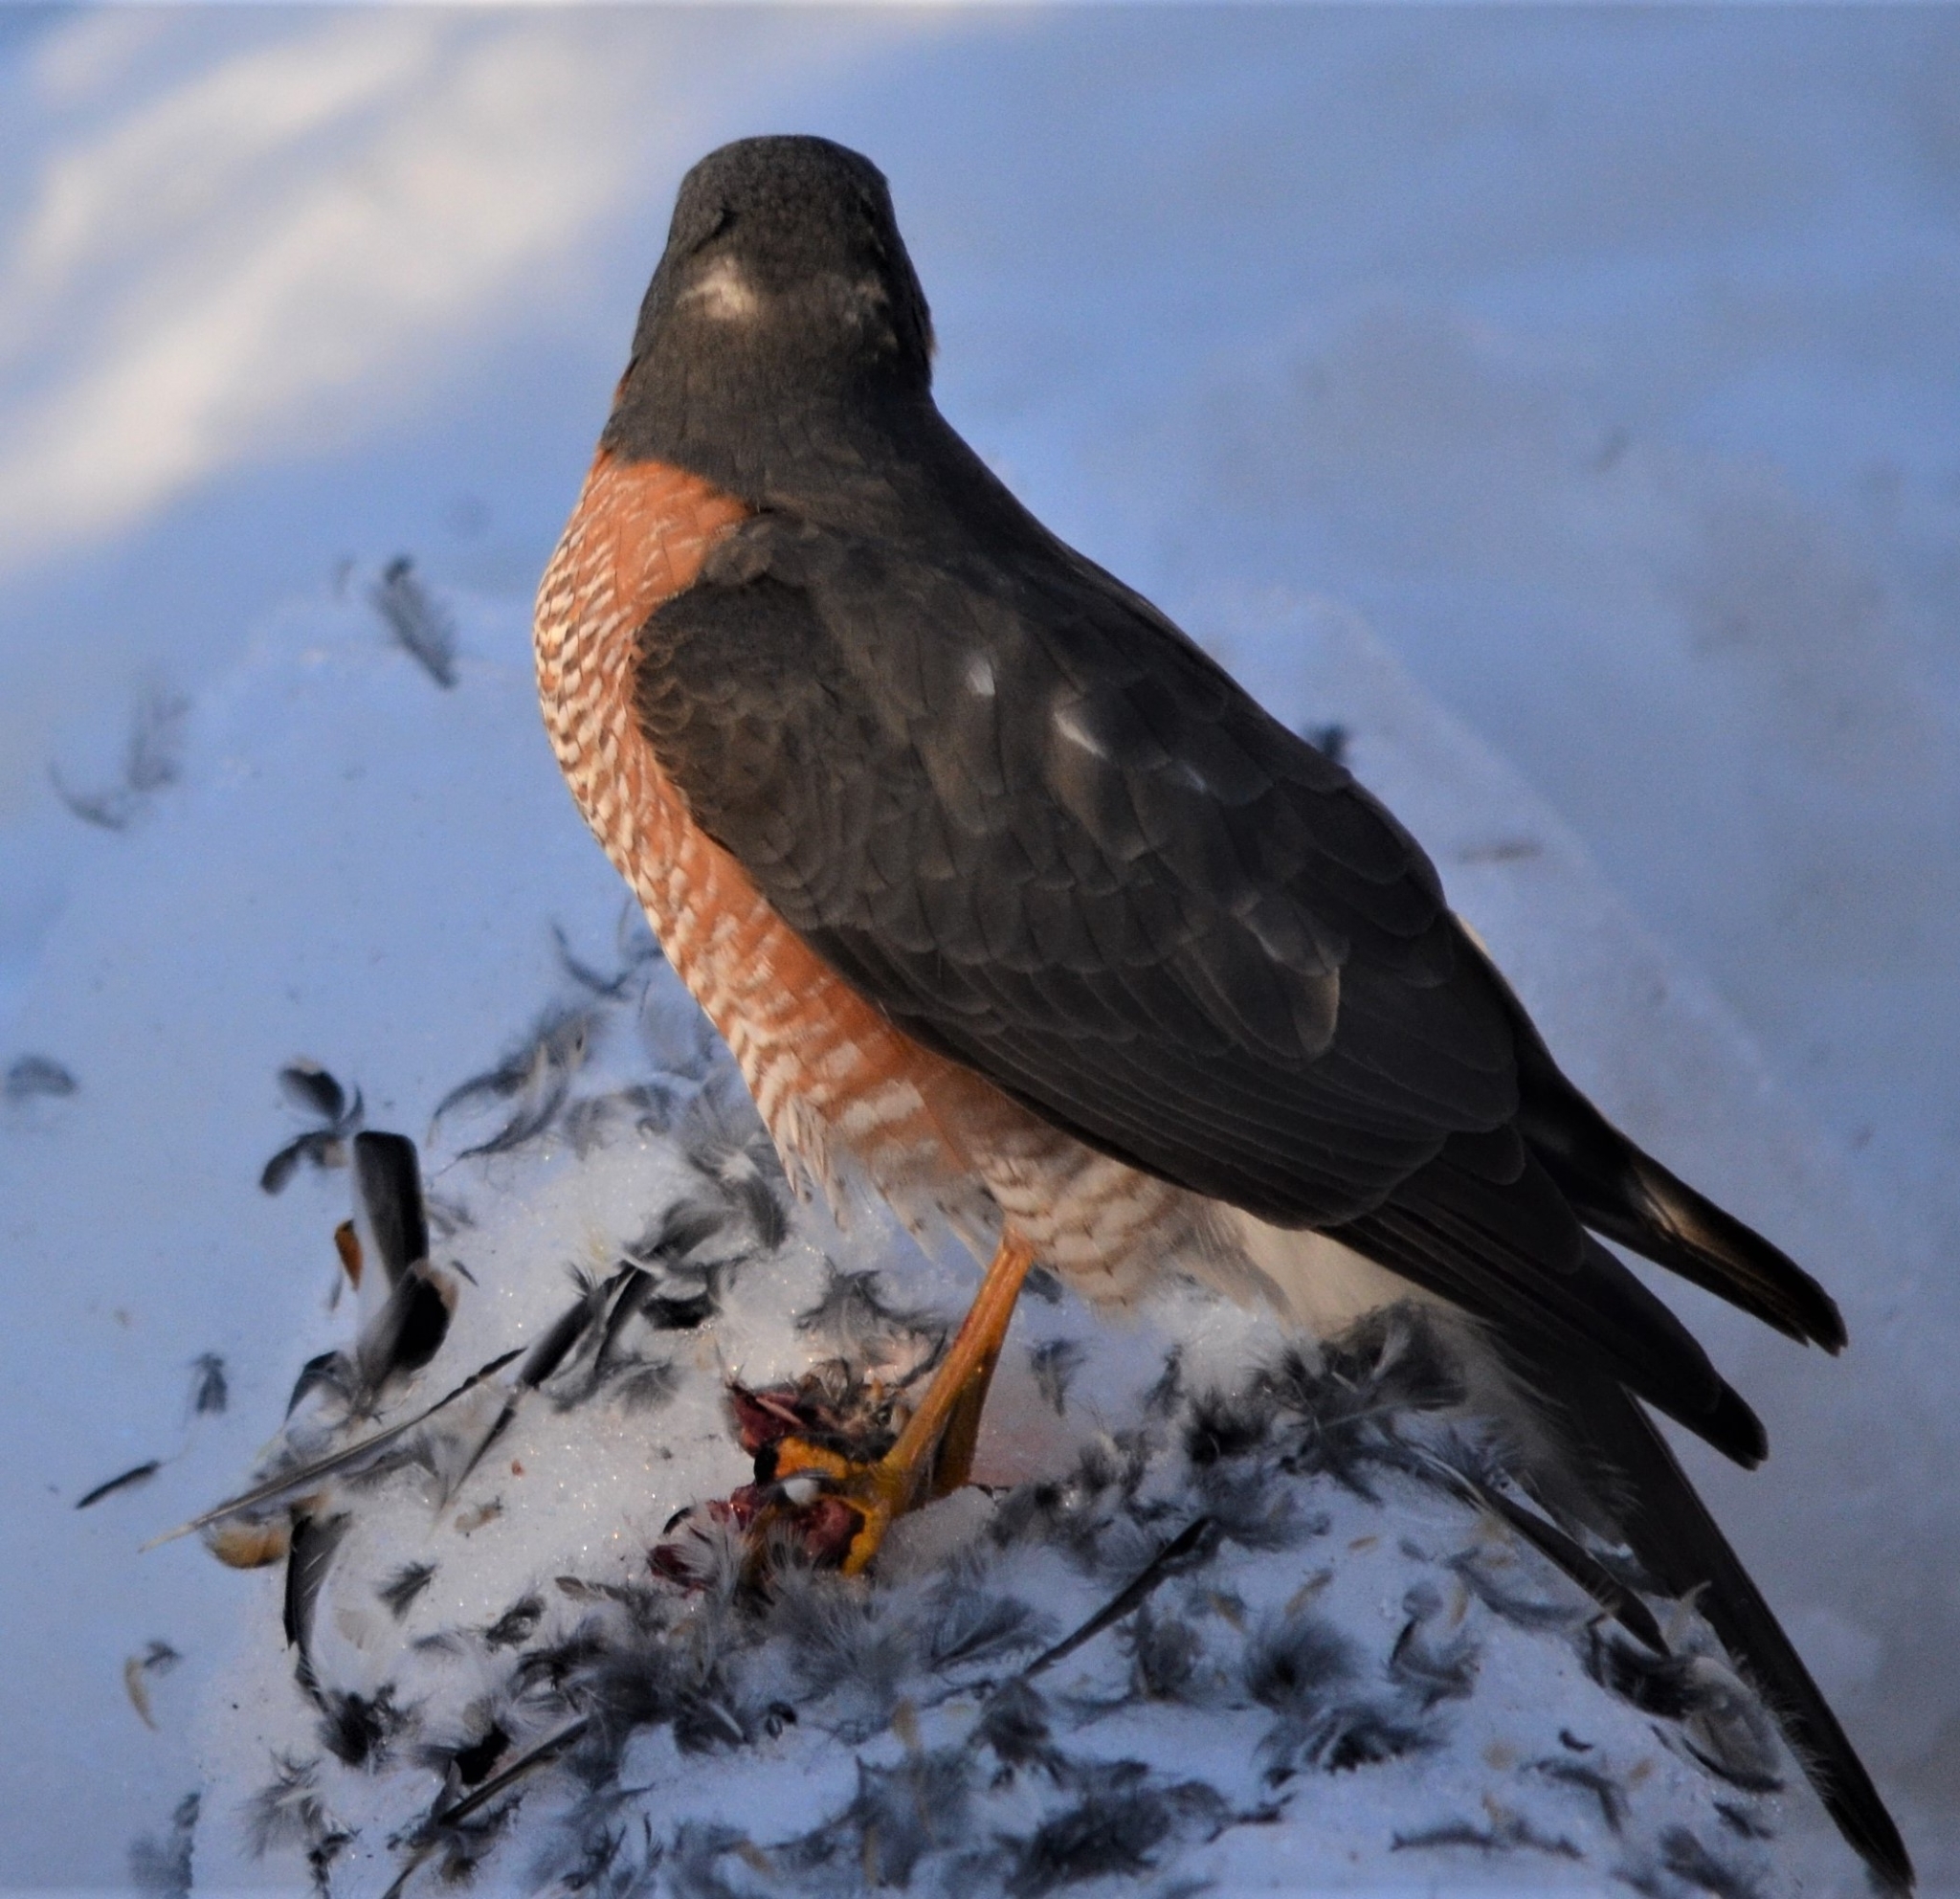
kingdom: Animalia
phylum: Chordata
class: Aves
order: Accipitriformes
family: Accipitridae
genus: Accipiter
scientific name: Accipiter nisus
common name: Eurasian sparrowhawk
